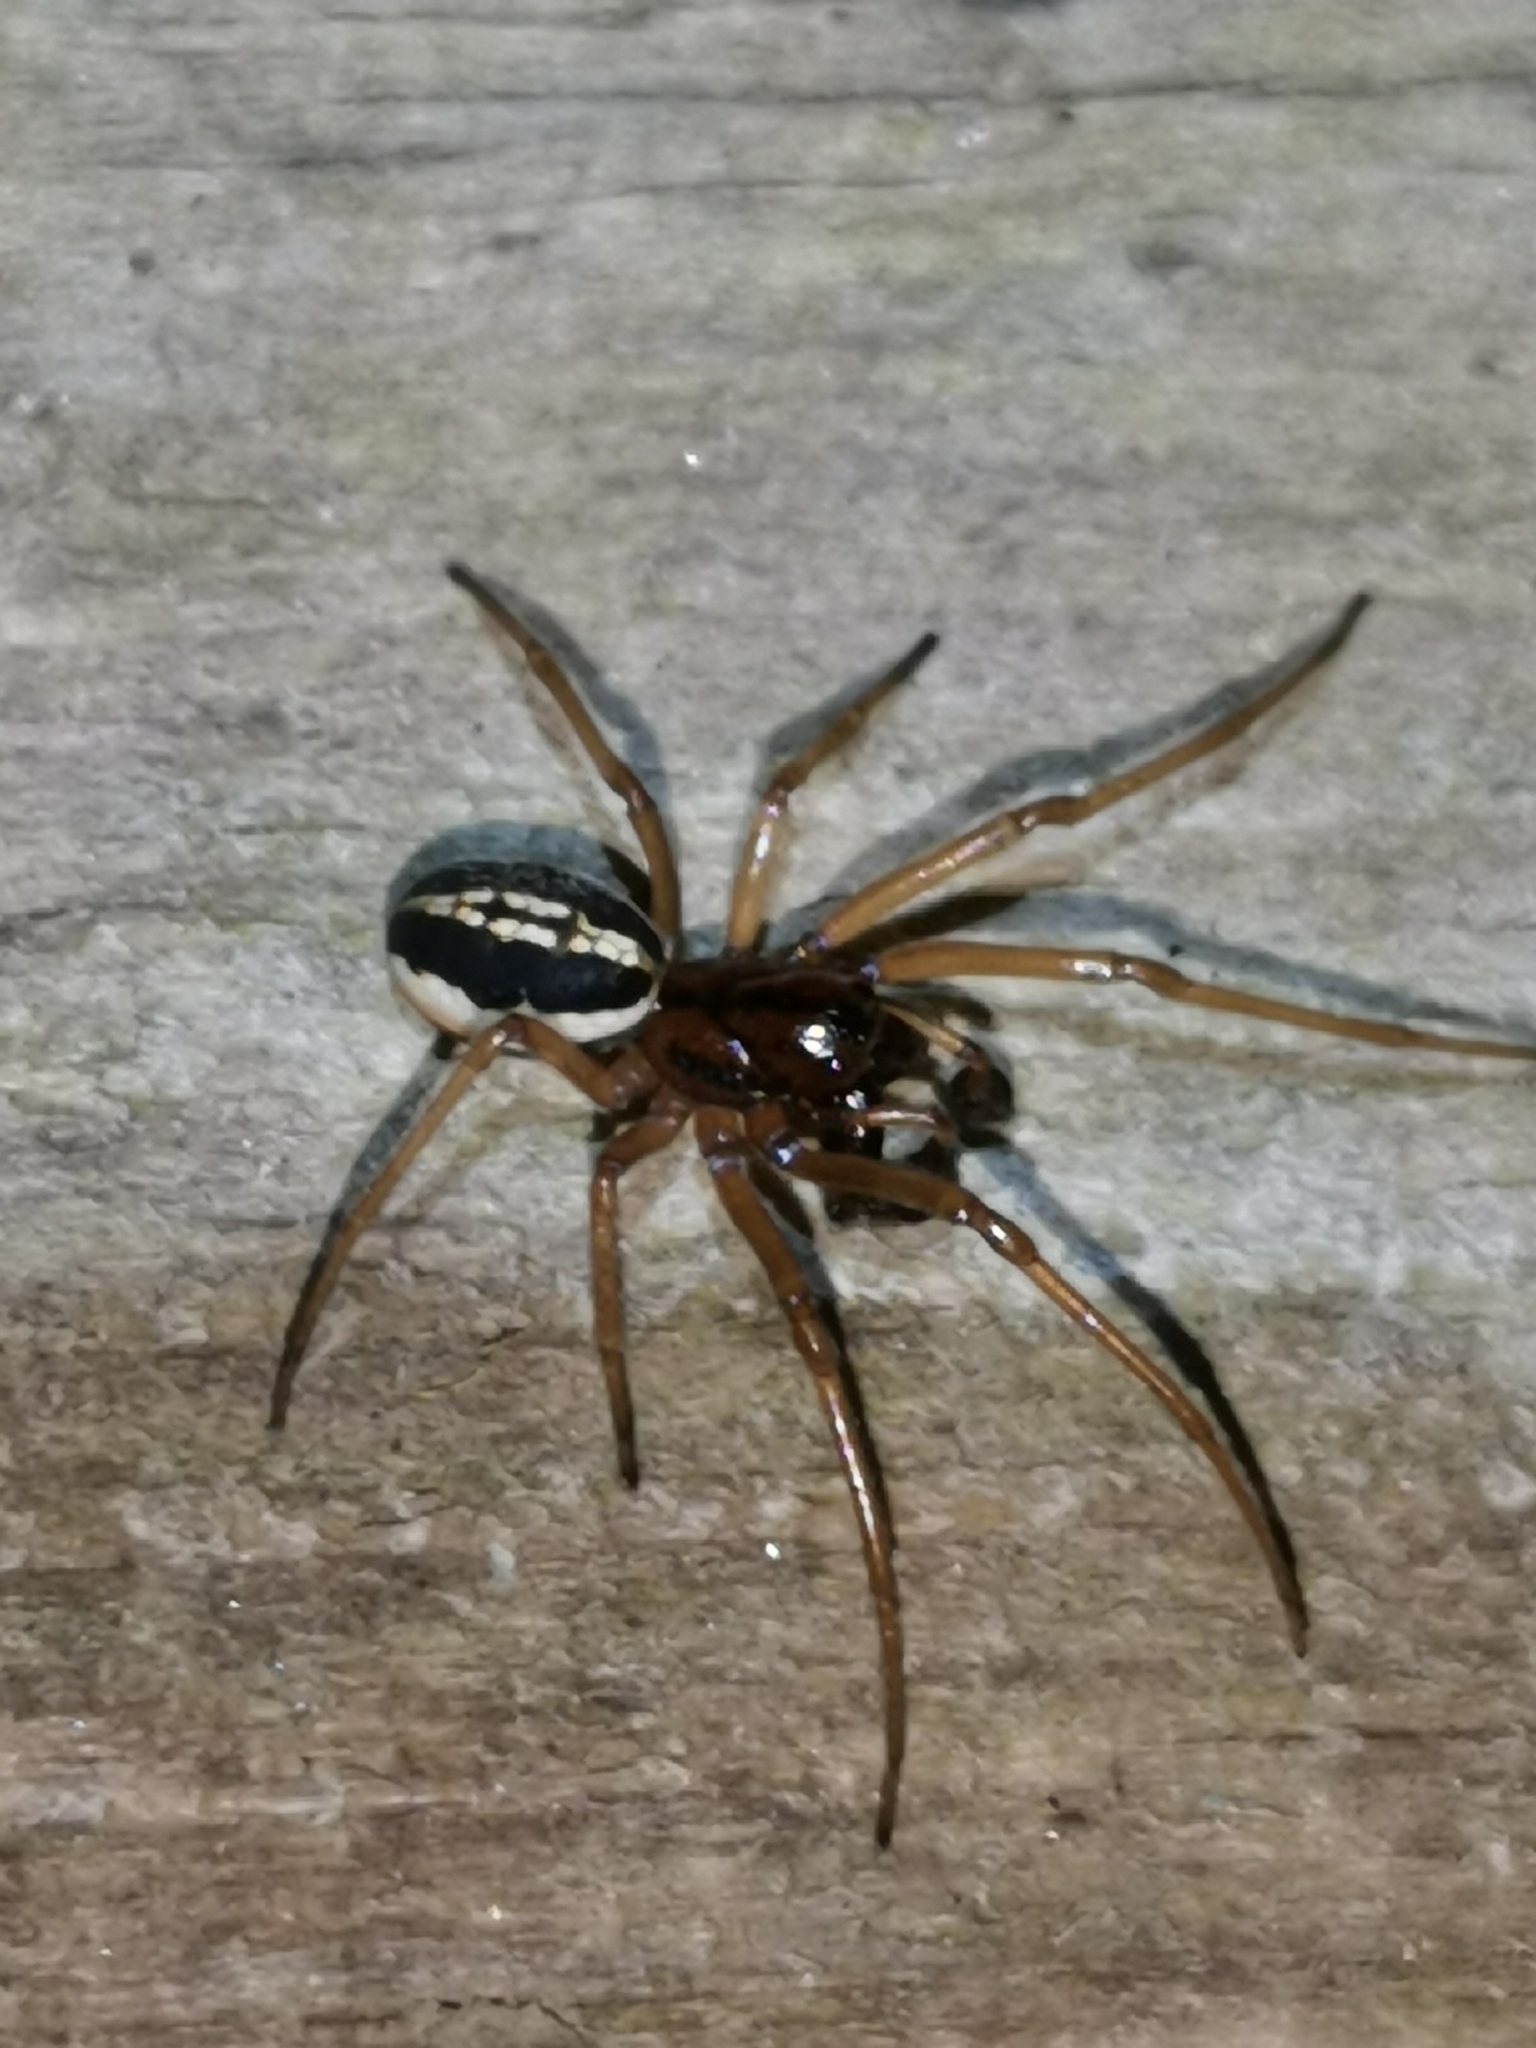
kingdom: Animalia
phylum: Arthropoda
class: Arachnida
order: Araneae
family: Tetragnathidae
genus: Pachygnatha
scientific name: Pachygnatha clercki
